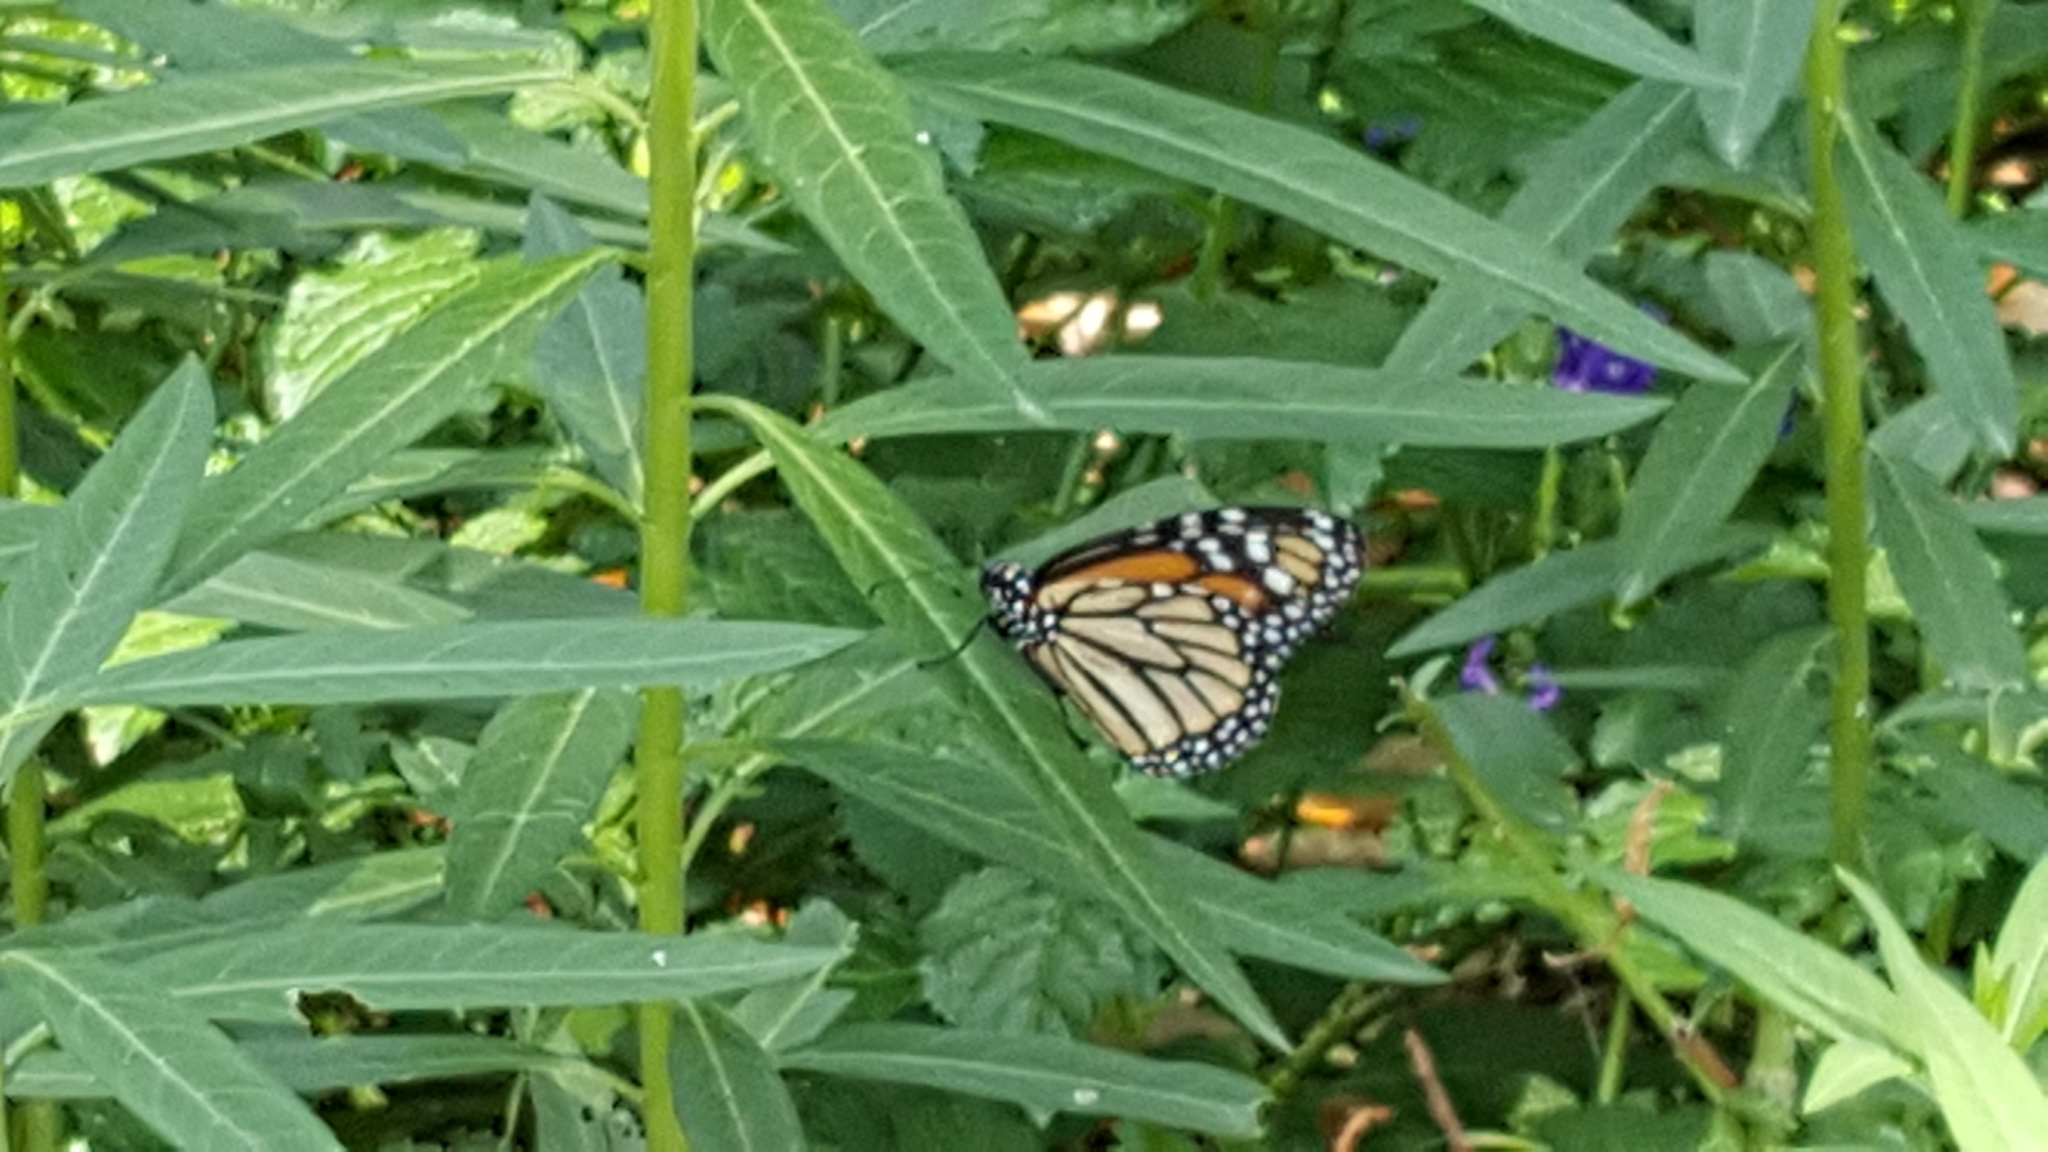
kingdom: Animalia
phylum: Arthropoda
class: Insecta
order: Lepidoptera
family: Nymphalidae
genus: Danaus
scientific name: Danaus plexippus
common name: Monarch
